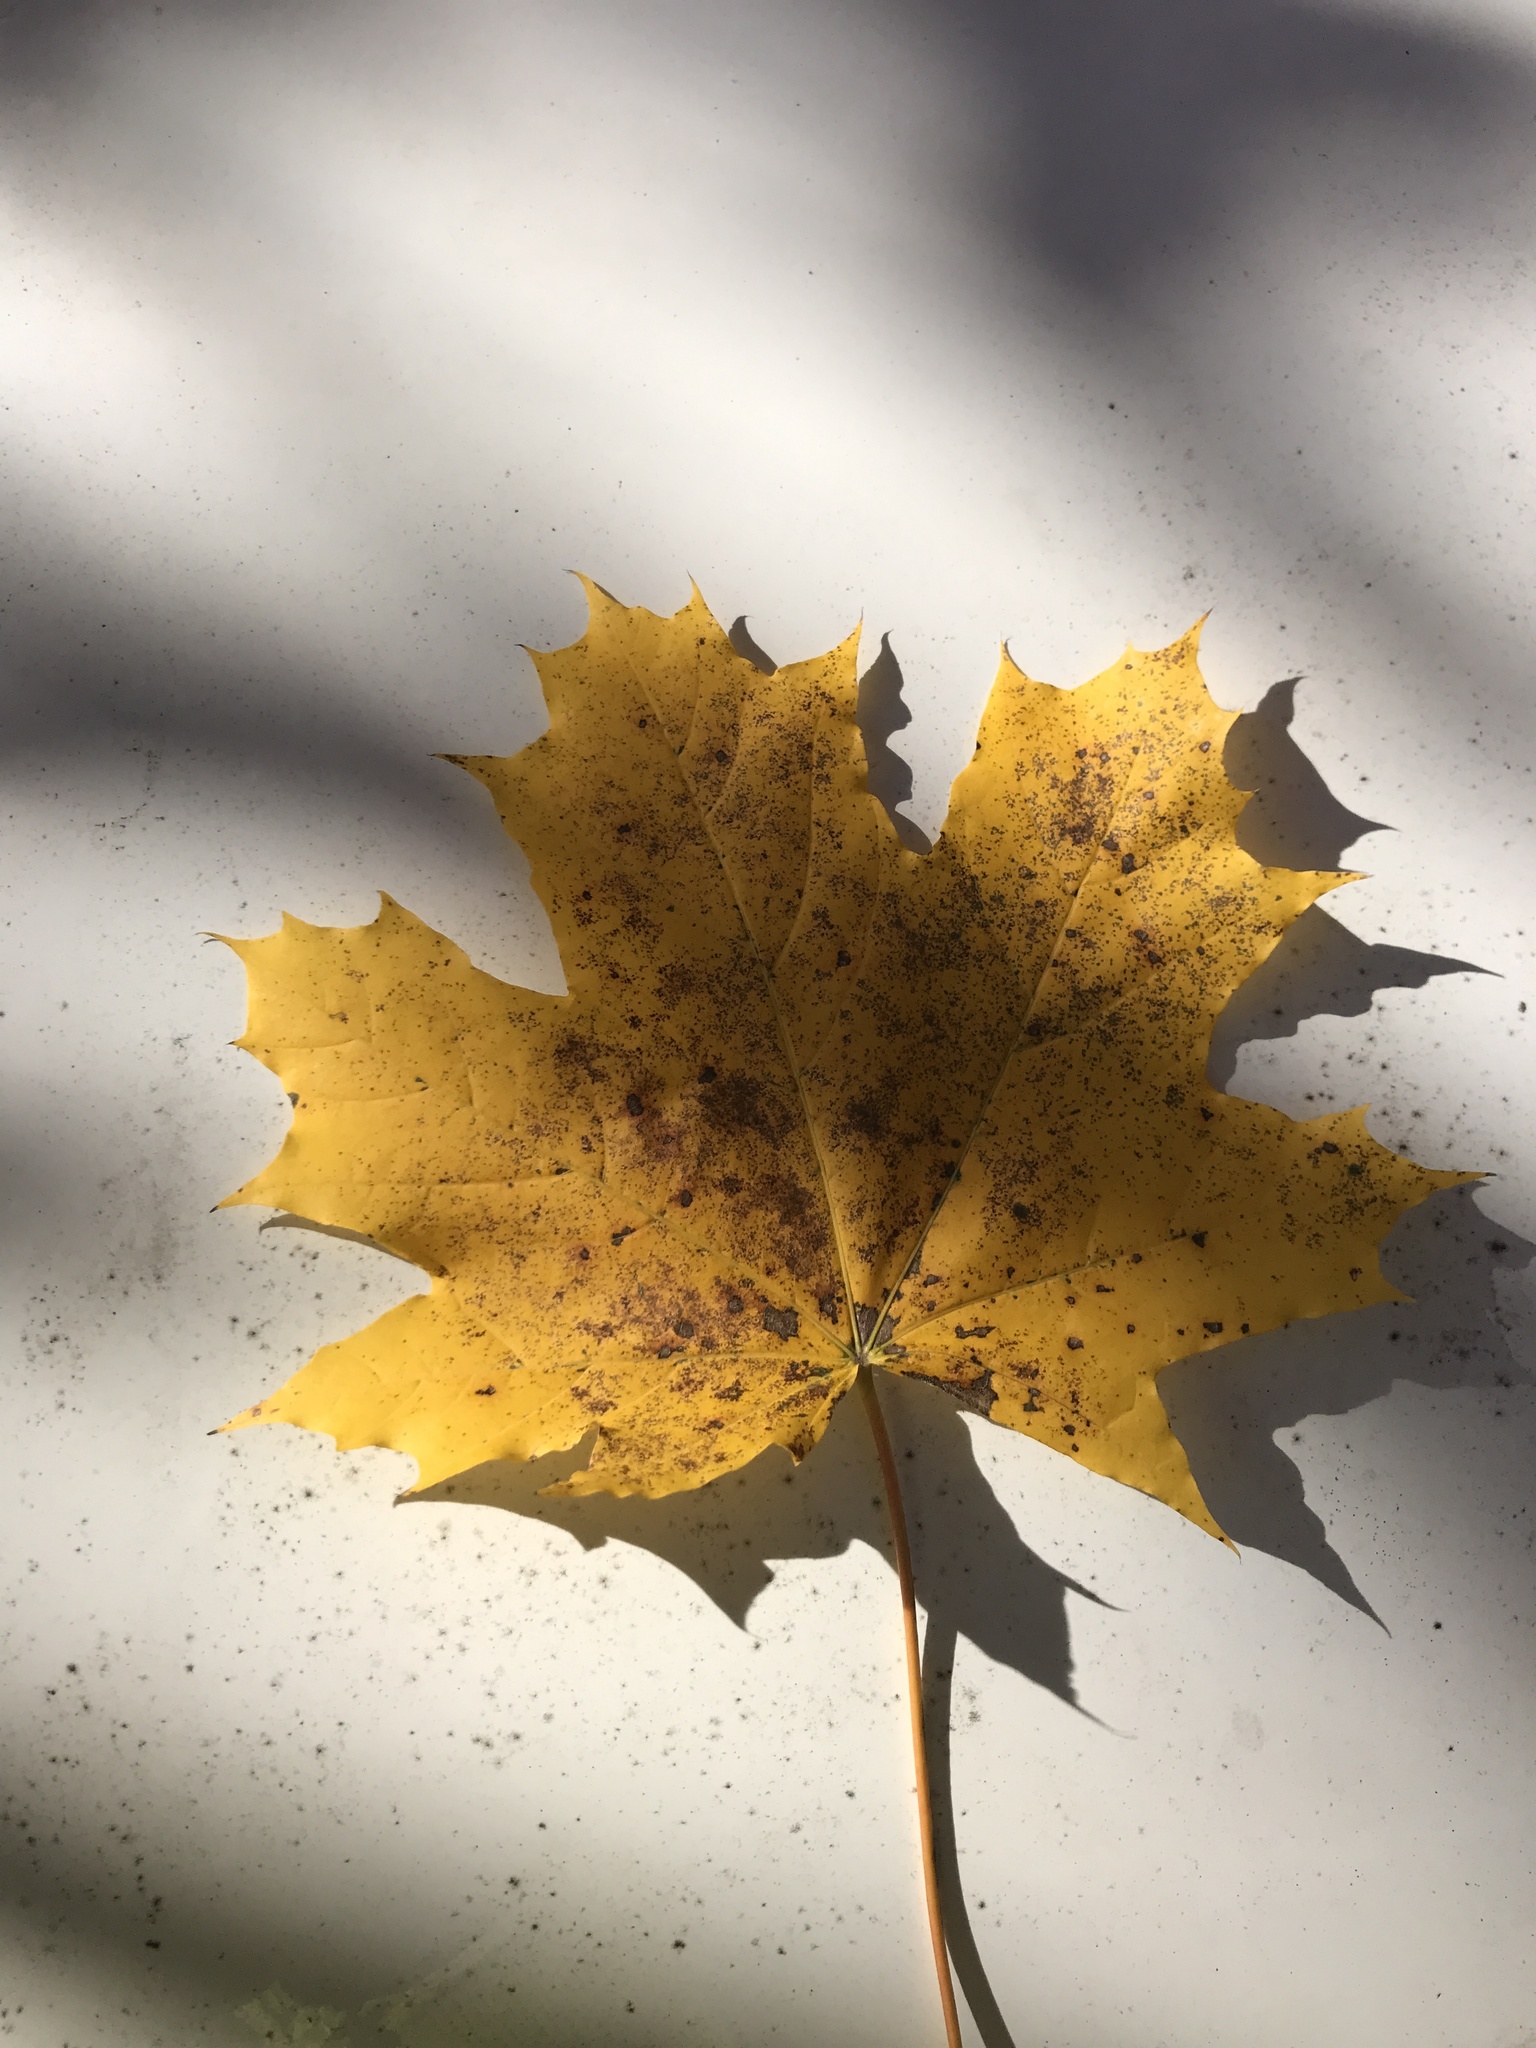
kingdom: Plantae
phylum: Tracheophyta
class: Magnoliopsida
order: Sapindales
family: Sapindaceae
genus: Acer
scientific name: Acer platanoides
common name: Norway maple
